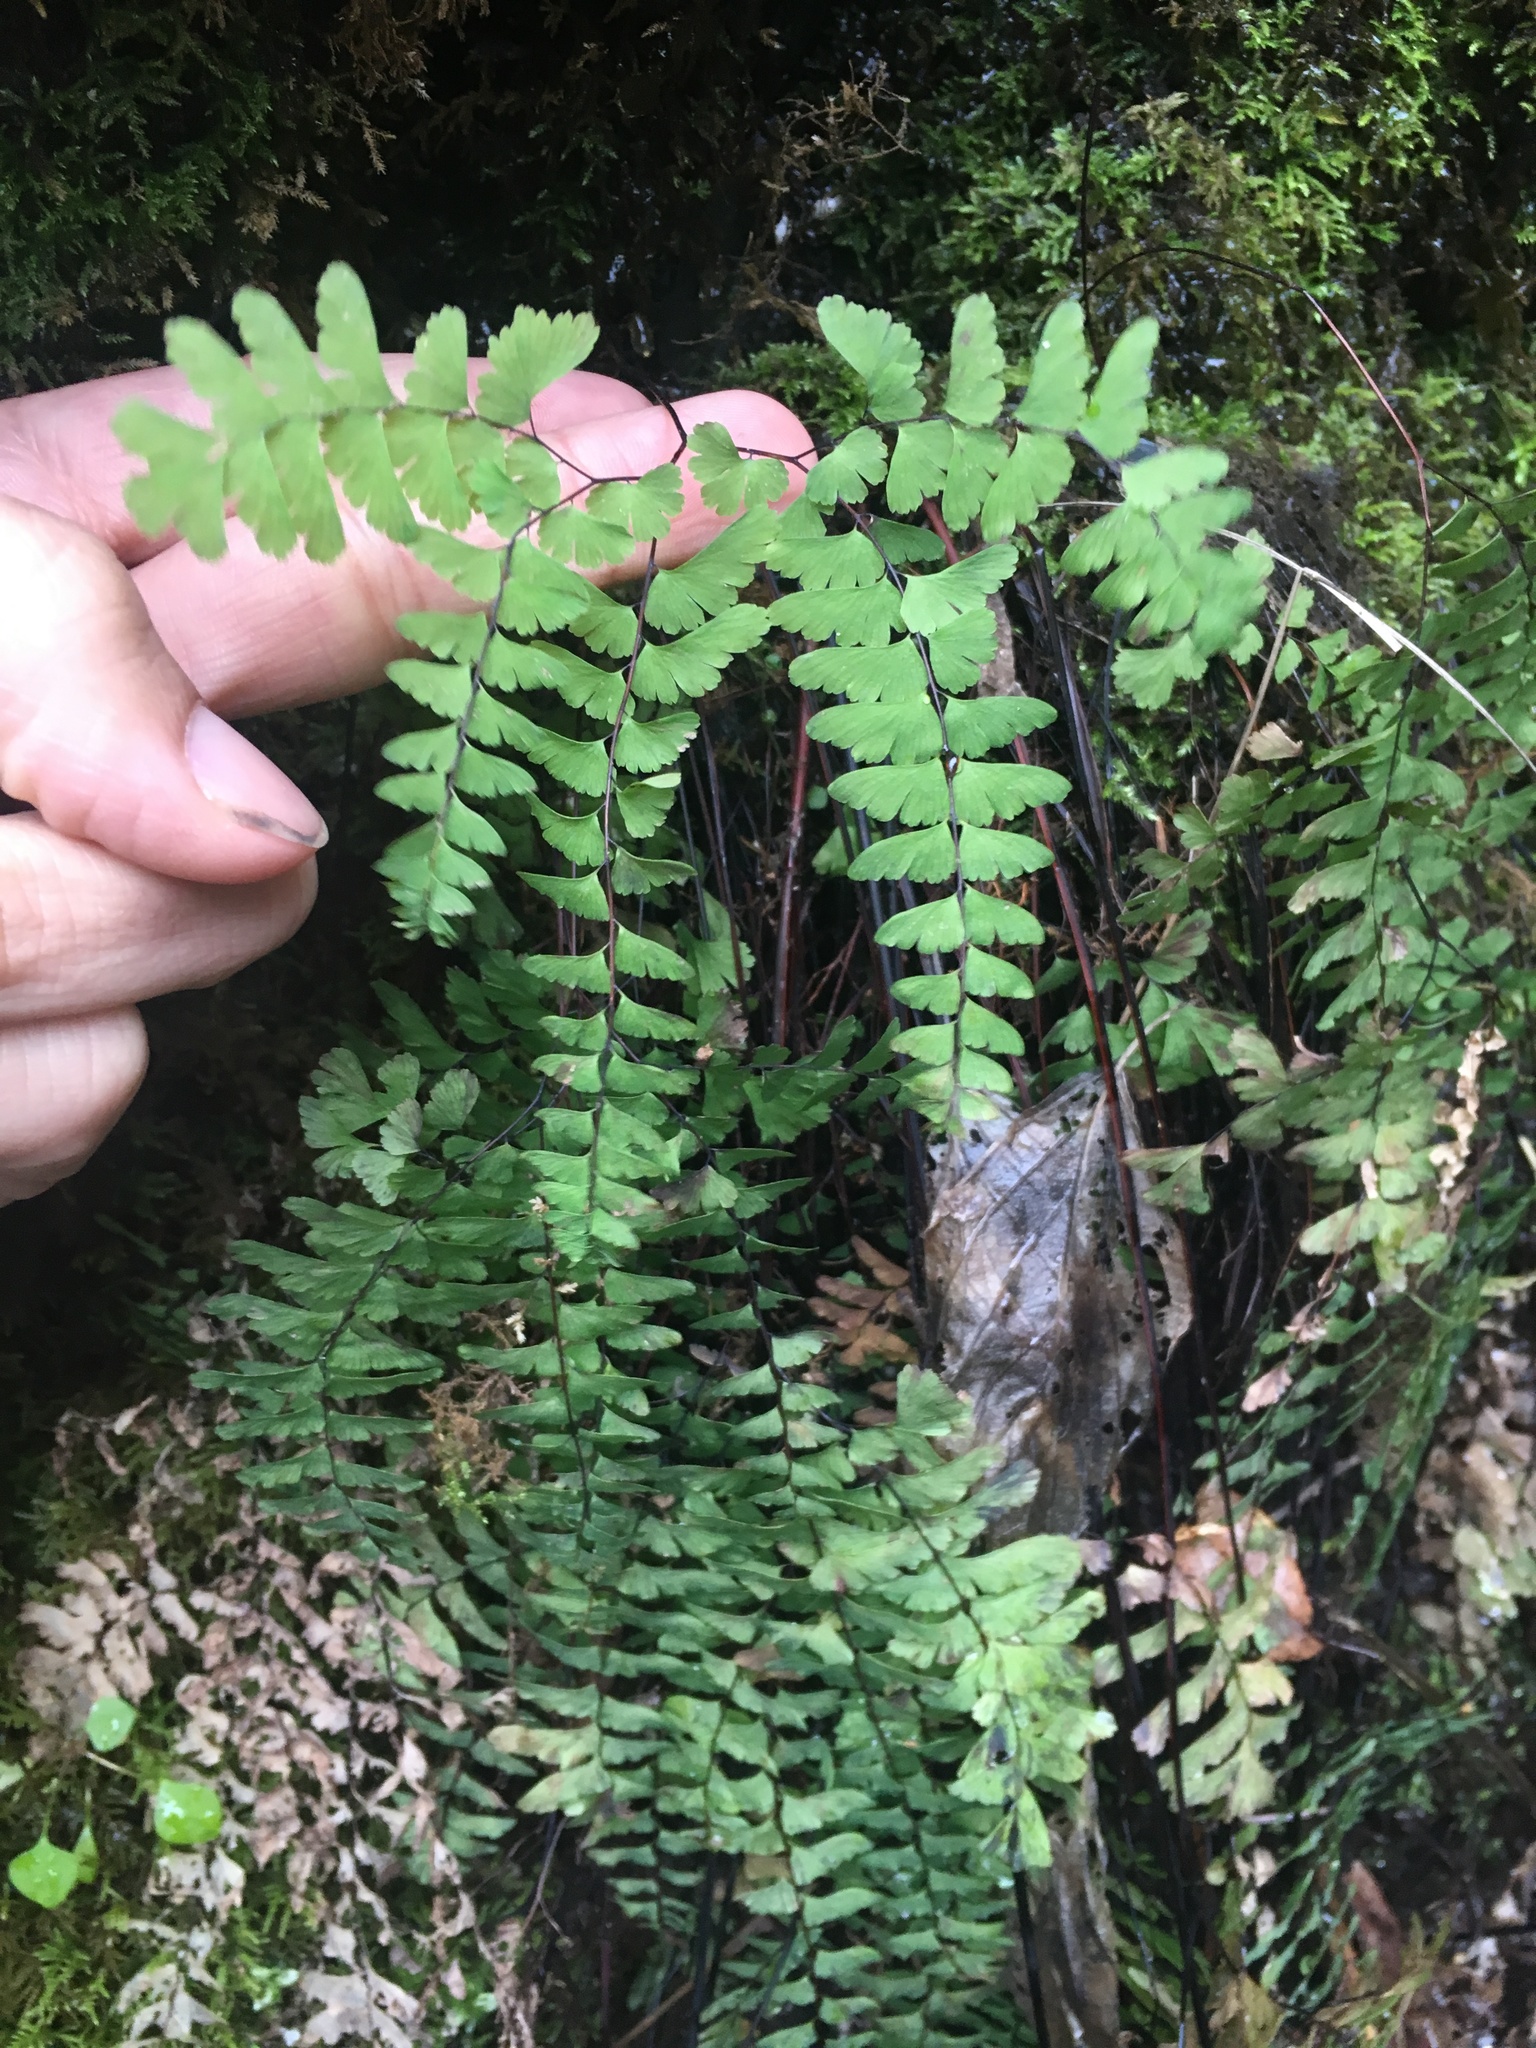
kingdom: Plantae
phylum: Tracheophyta
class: Polypodiopsida
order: Polypodiales
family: Pteridaceae
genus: Adiantum
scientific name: Adiantum aleuticum
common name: Aleutian maidenhair fern
